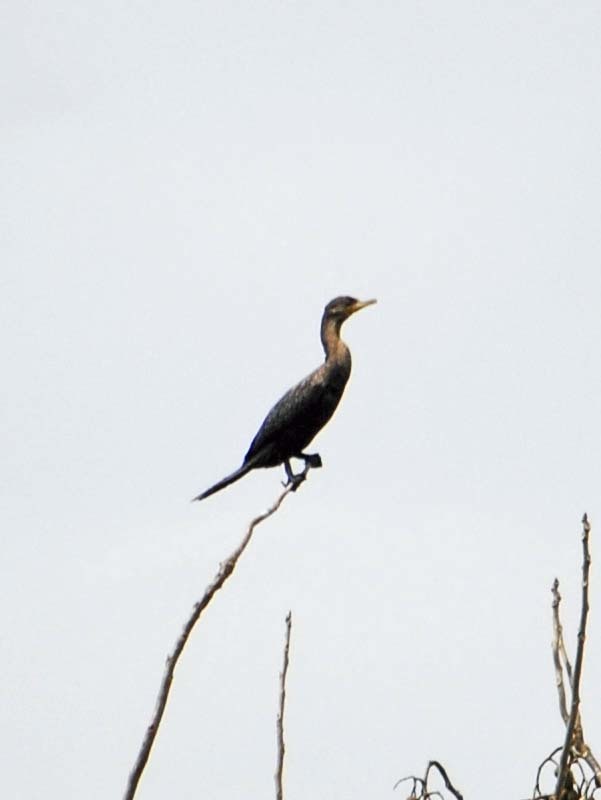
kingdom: Animalia
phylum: Chordata
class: Aves
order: Suliformes
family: Phalacrocoracidae
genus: Phalacrocorax
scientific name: Phalacrocorax brasilianus
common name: Neotropic cormorant
